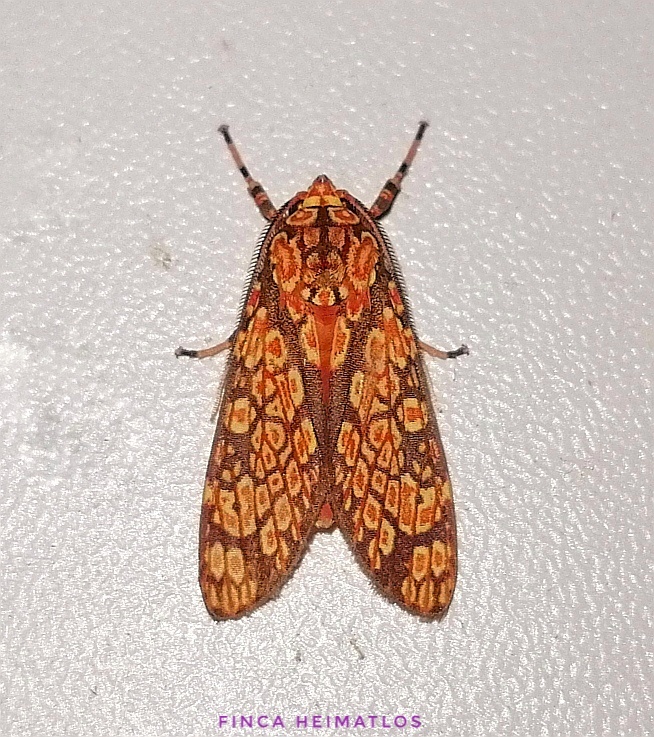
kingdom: Animalia
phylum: Arthropoda
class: Insecta
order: Lepidoptera
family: Erebidae
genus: Cresera
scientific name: Cresera optimus
